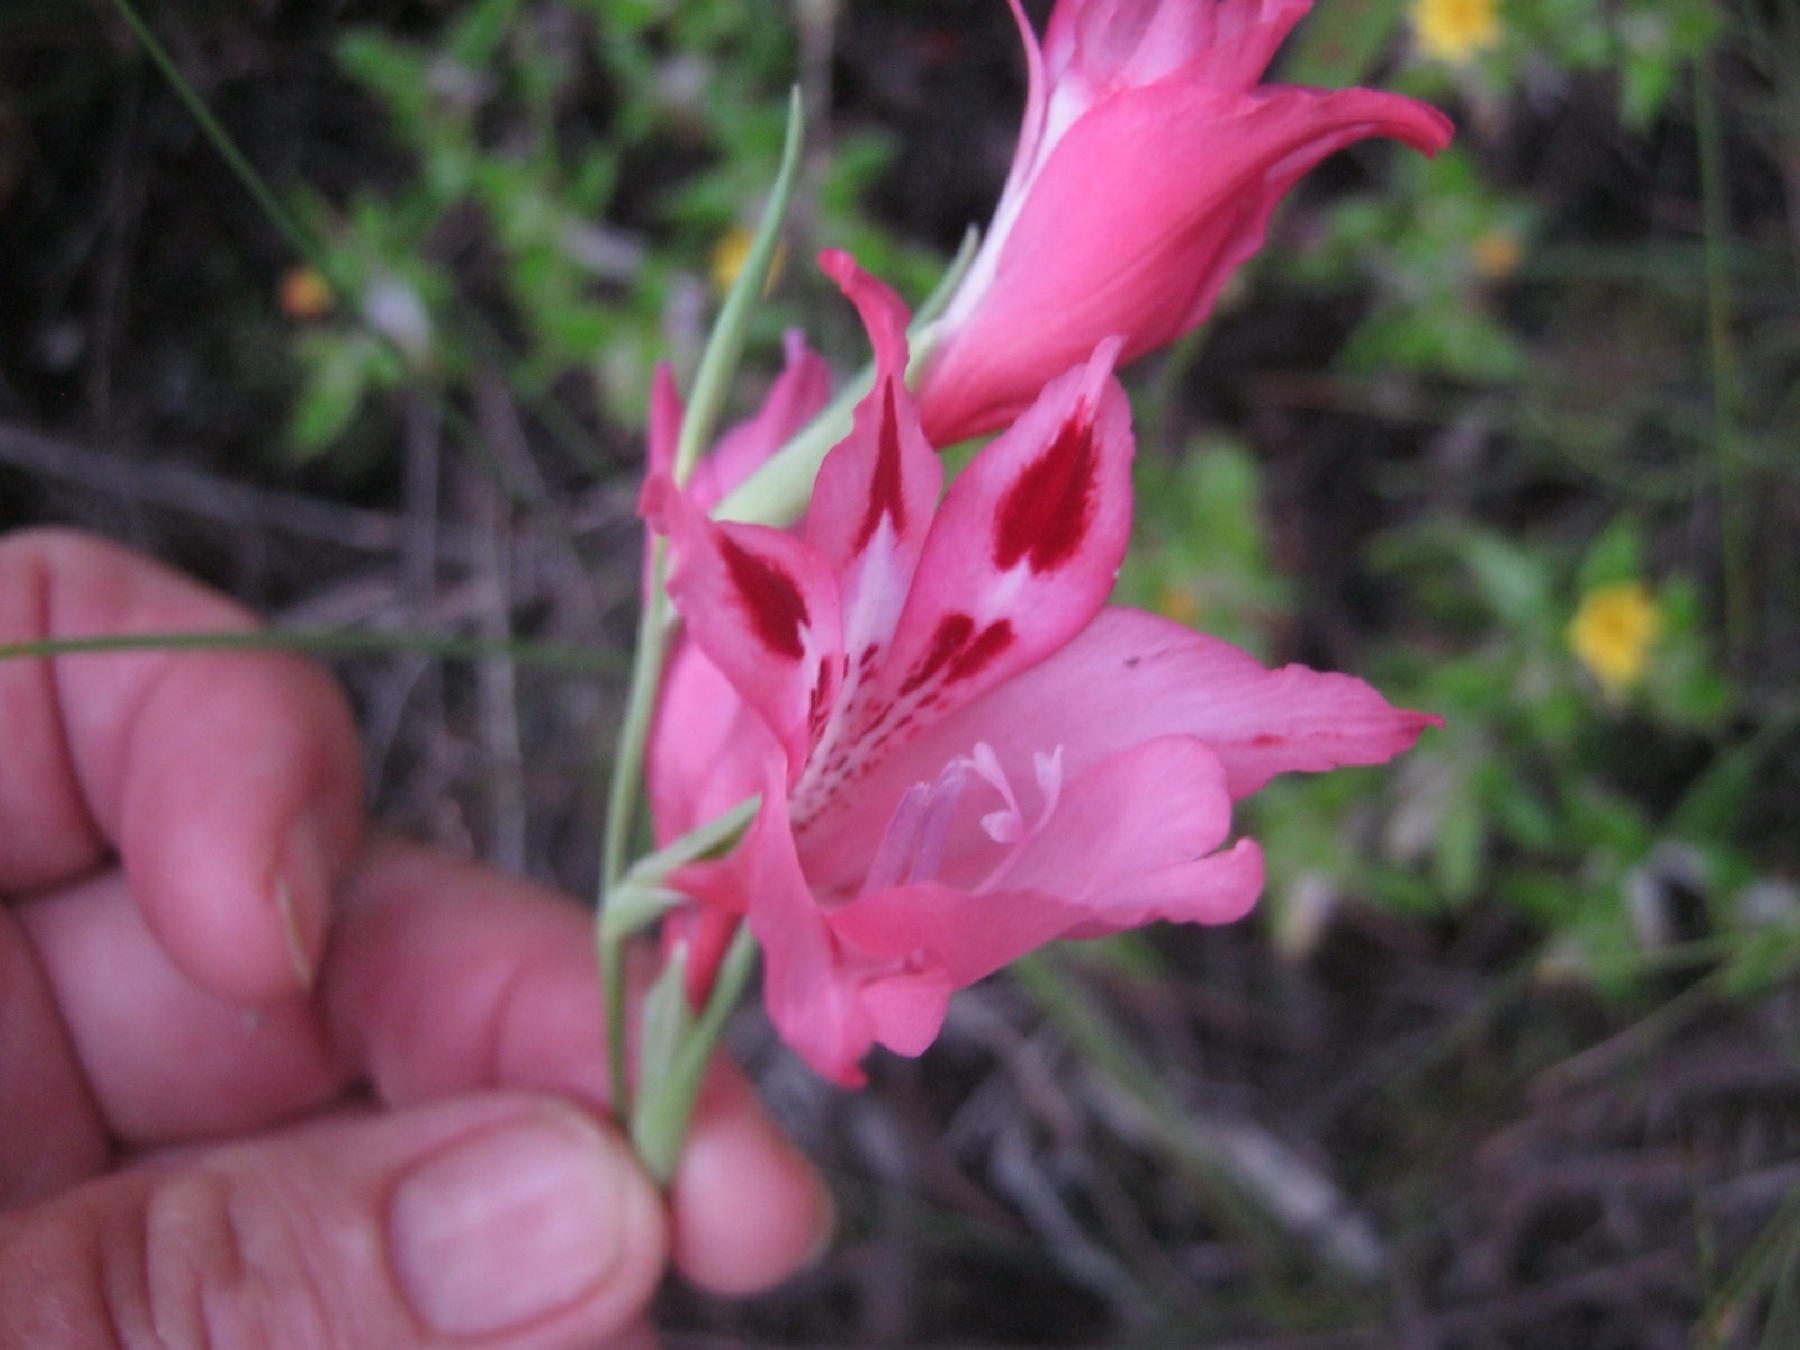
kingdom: Plantae
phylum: Tracheophyta
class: Liliopsida
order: Asparagales
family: Iridaceae
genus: Gladiolus
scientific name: Gladiolus crispulatus
